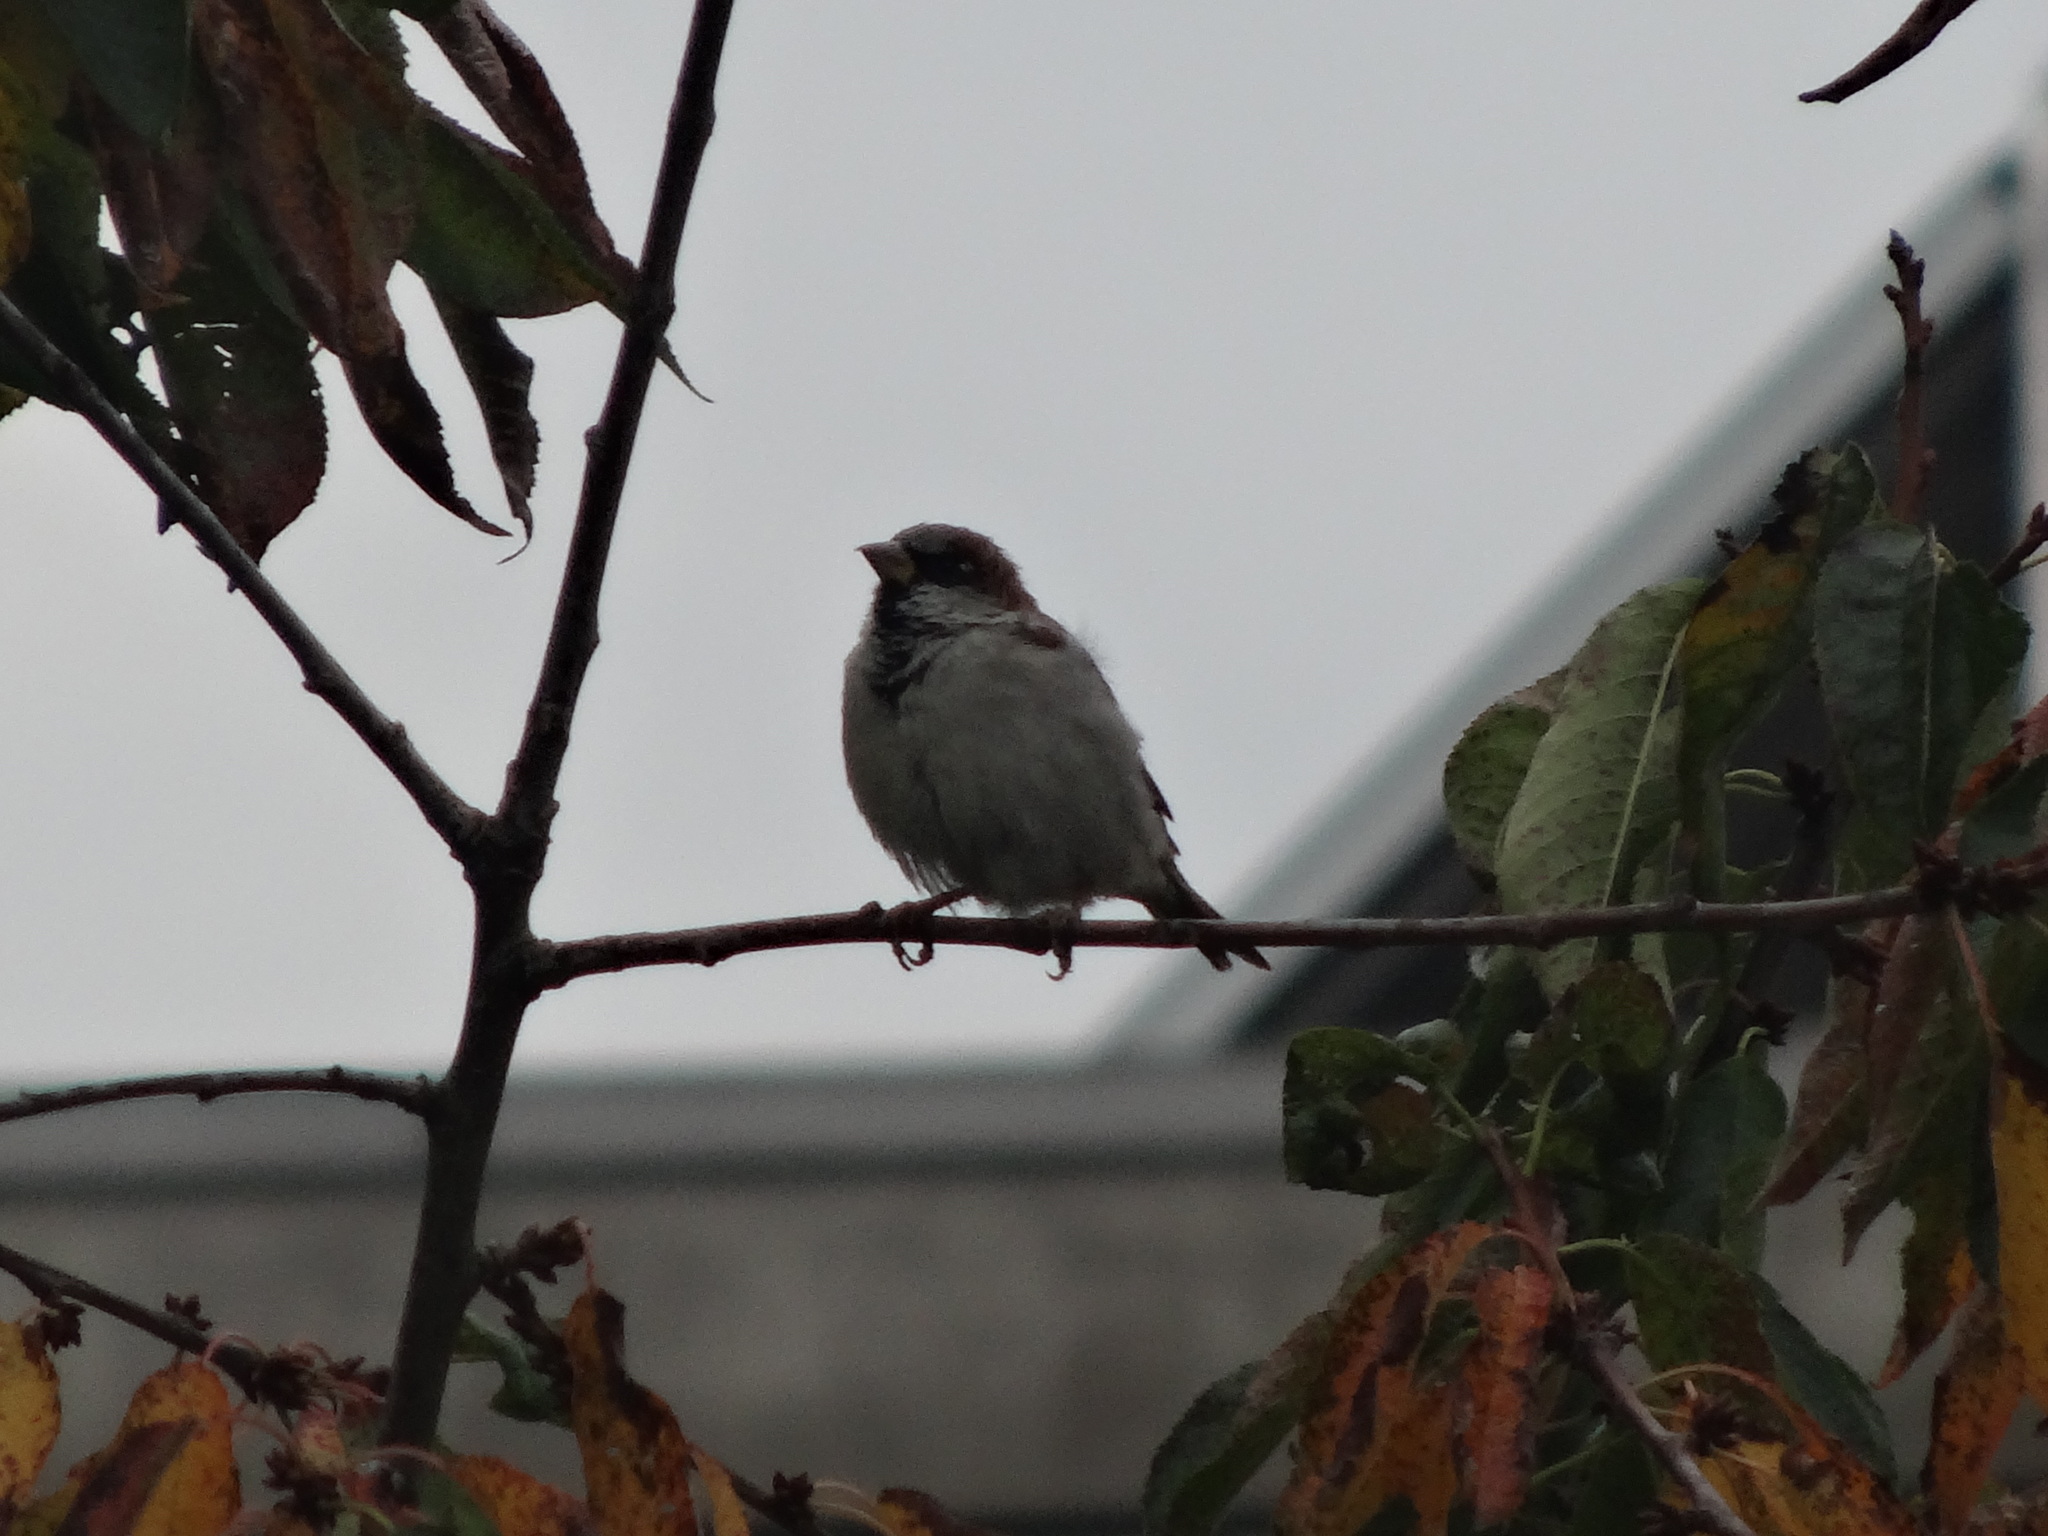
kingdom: Animalia
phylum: Chordata
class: Aves
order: Passeriformes
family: Passeridae
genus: Passer
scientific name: Passer domesticus
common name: House sparrow
